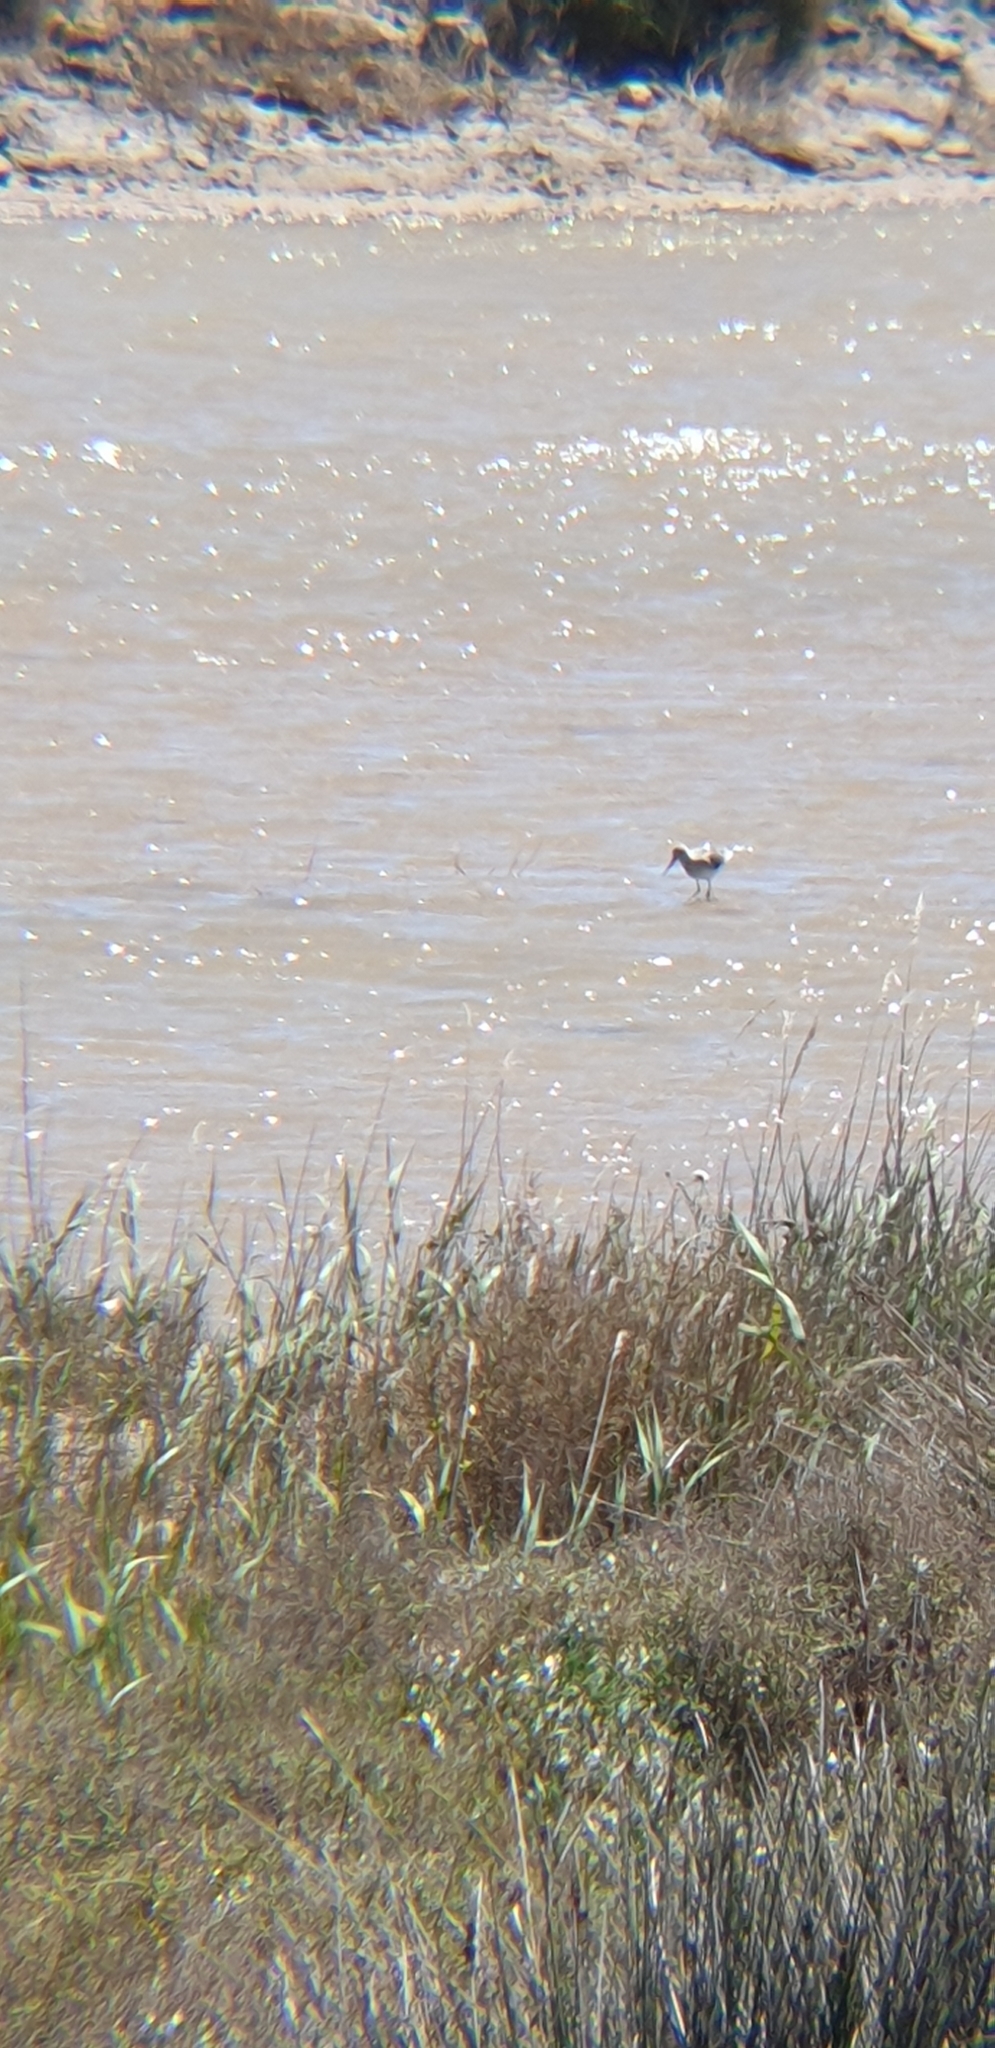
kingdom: Animalia
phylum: Chordata
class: Aves
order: Charadriiformes
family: Scolopacidae
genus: Tringa
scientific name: Tringa nebularia
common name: Common greenshank
